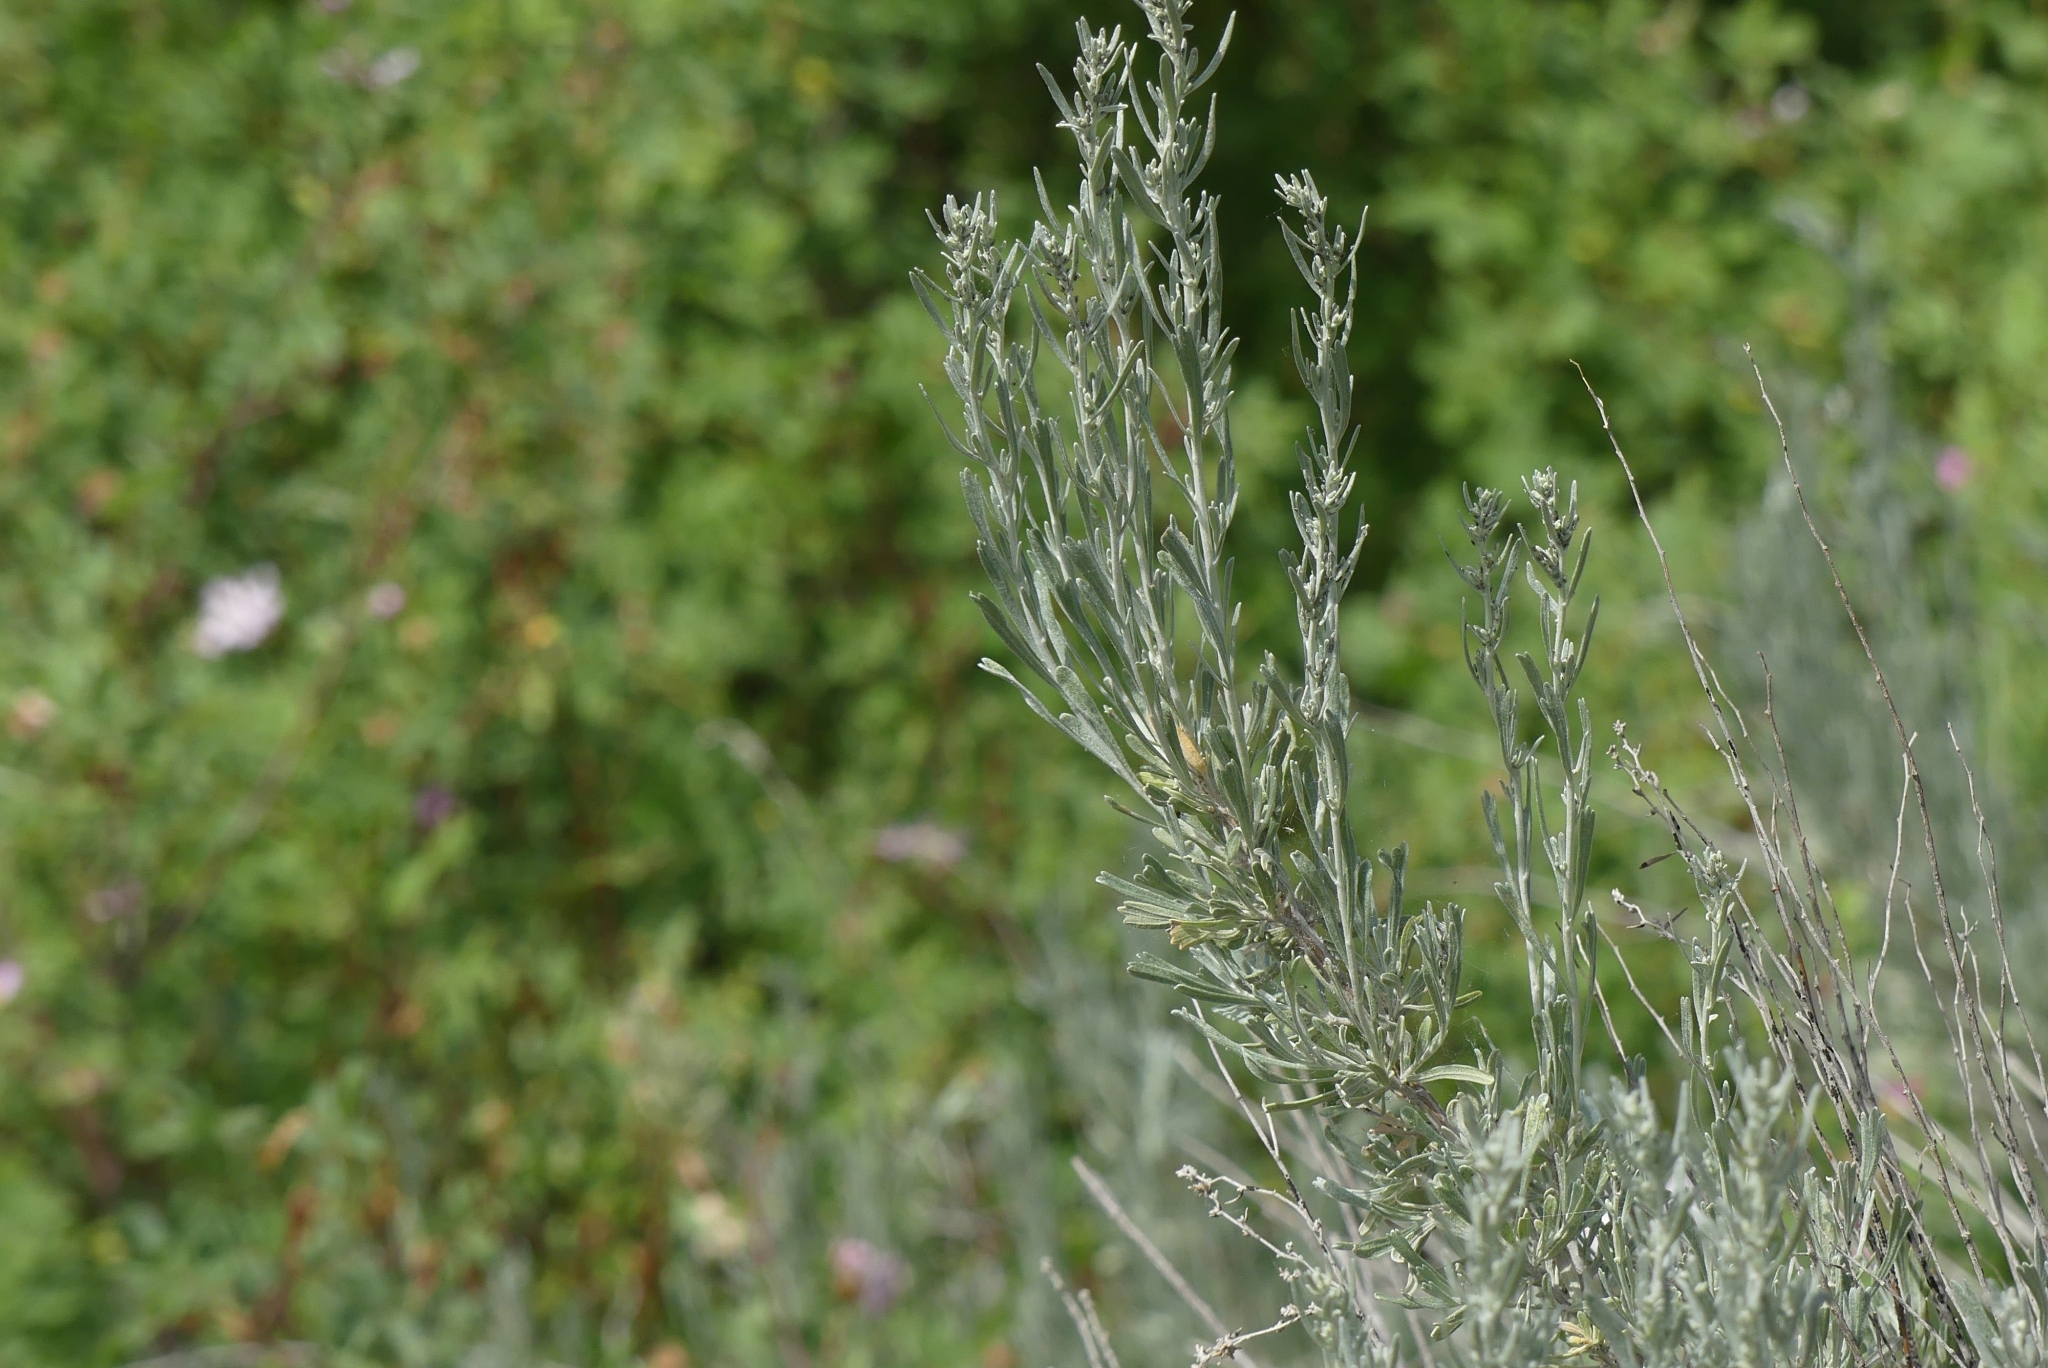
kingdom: Plantae
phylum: Tracheophyta
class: Magnoliopsida
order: Asterales
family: Asteraceae
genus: Artemisia
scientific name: Artemisia tridentata
